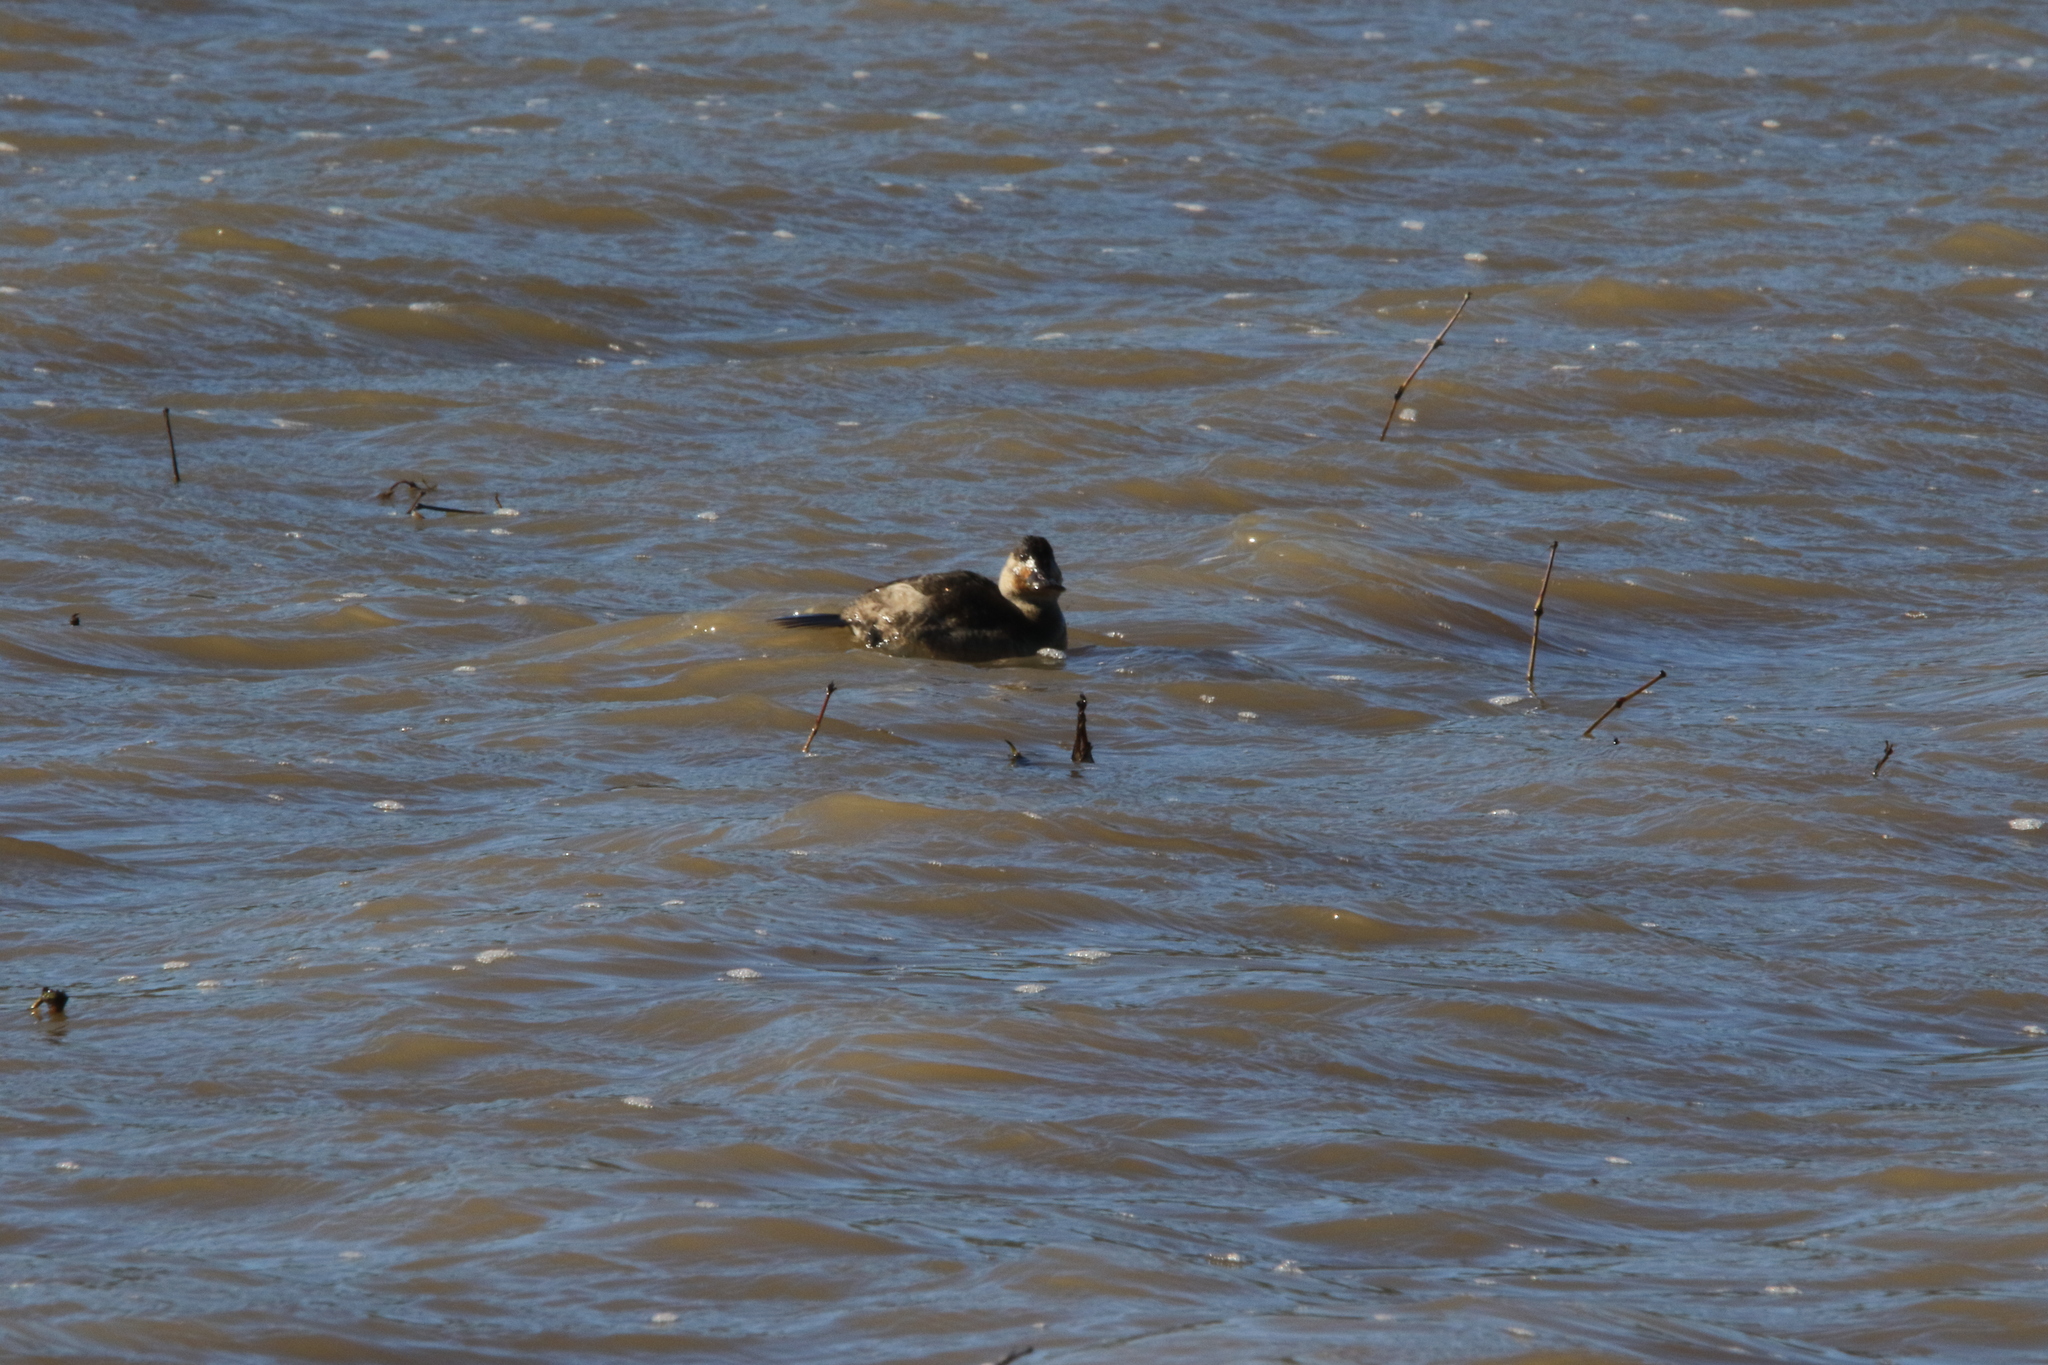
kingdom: Animalia
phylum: Chordata
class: Aves
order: Anseriformes
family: Anatidae
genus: Oxyura
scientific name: Oxyura jamaicensis
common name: Ruddy duck
